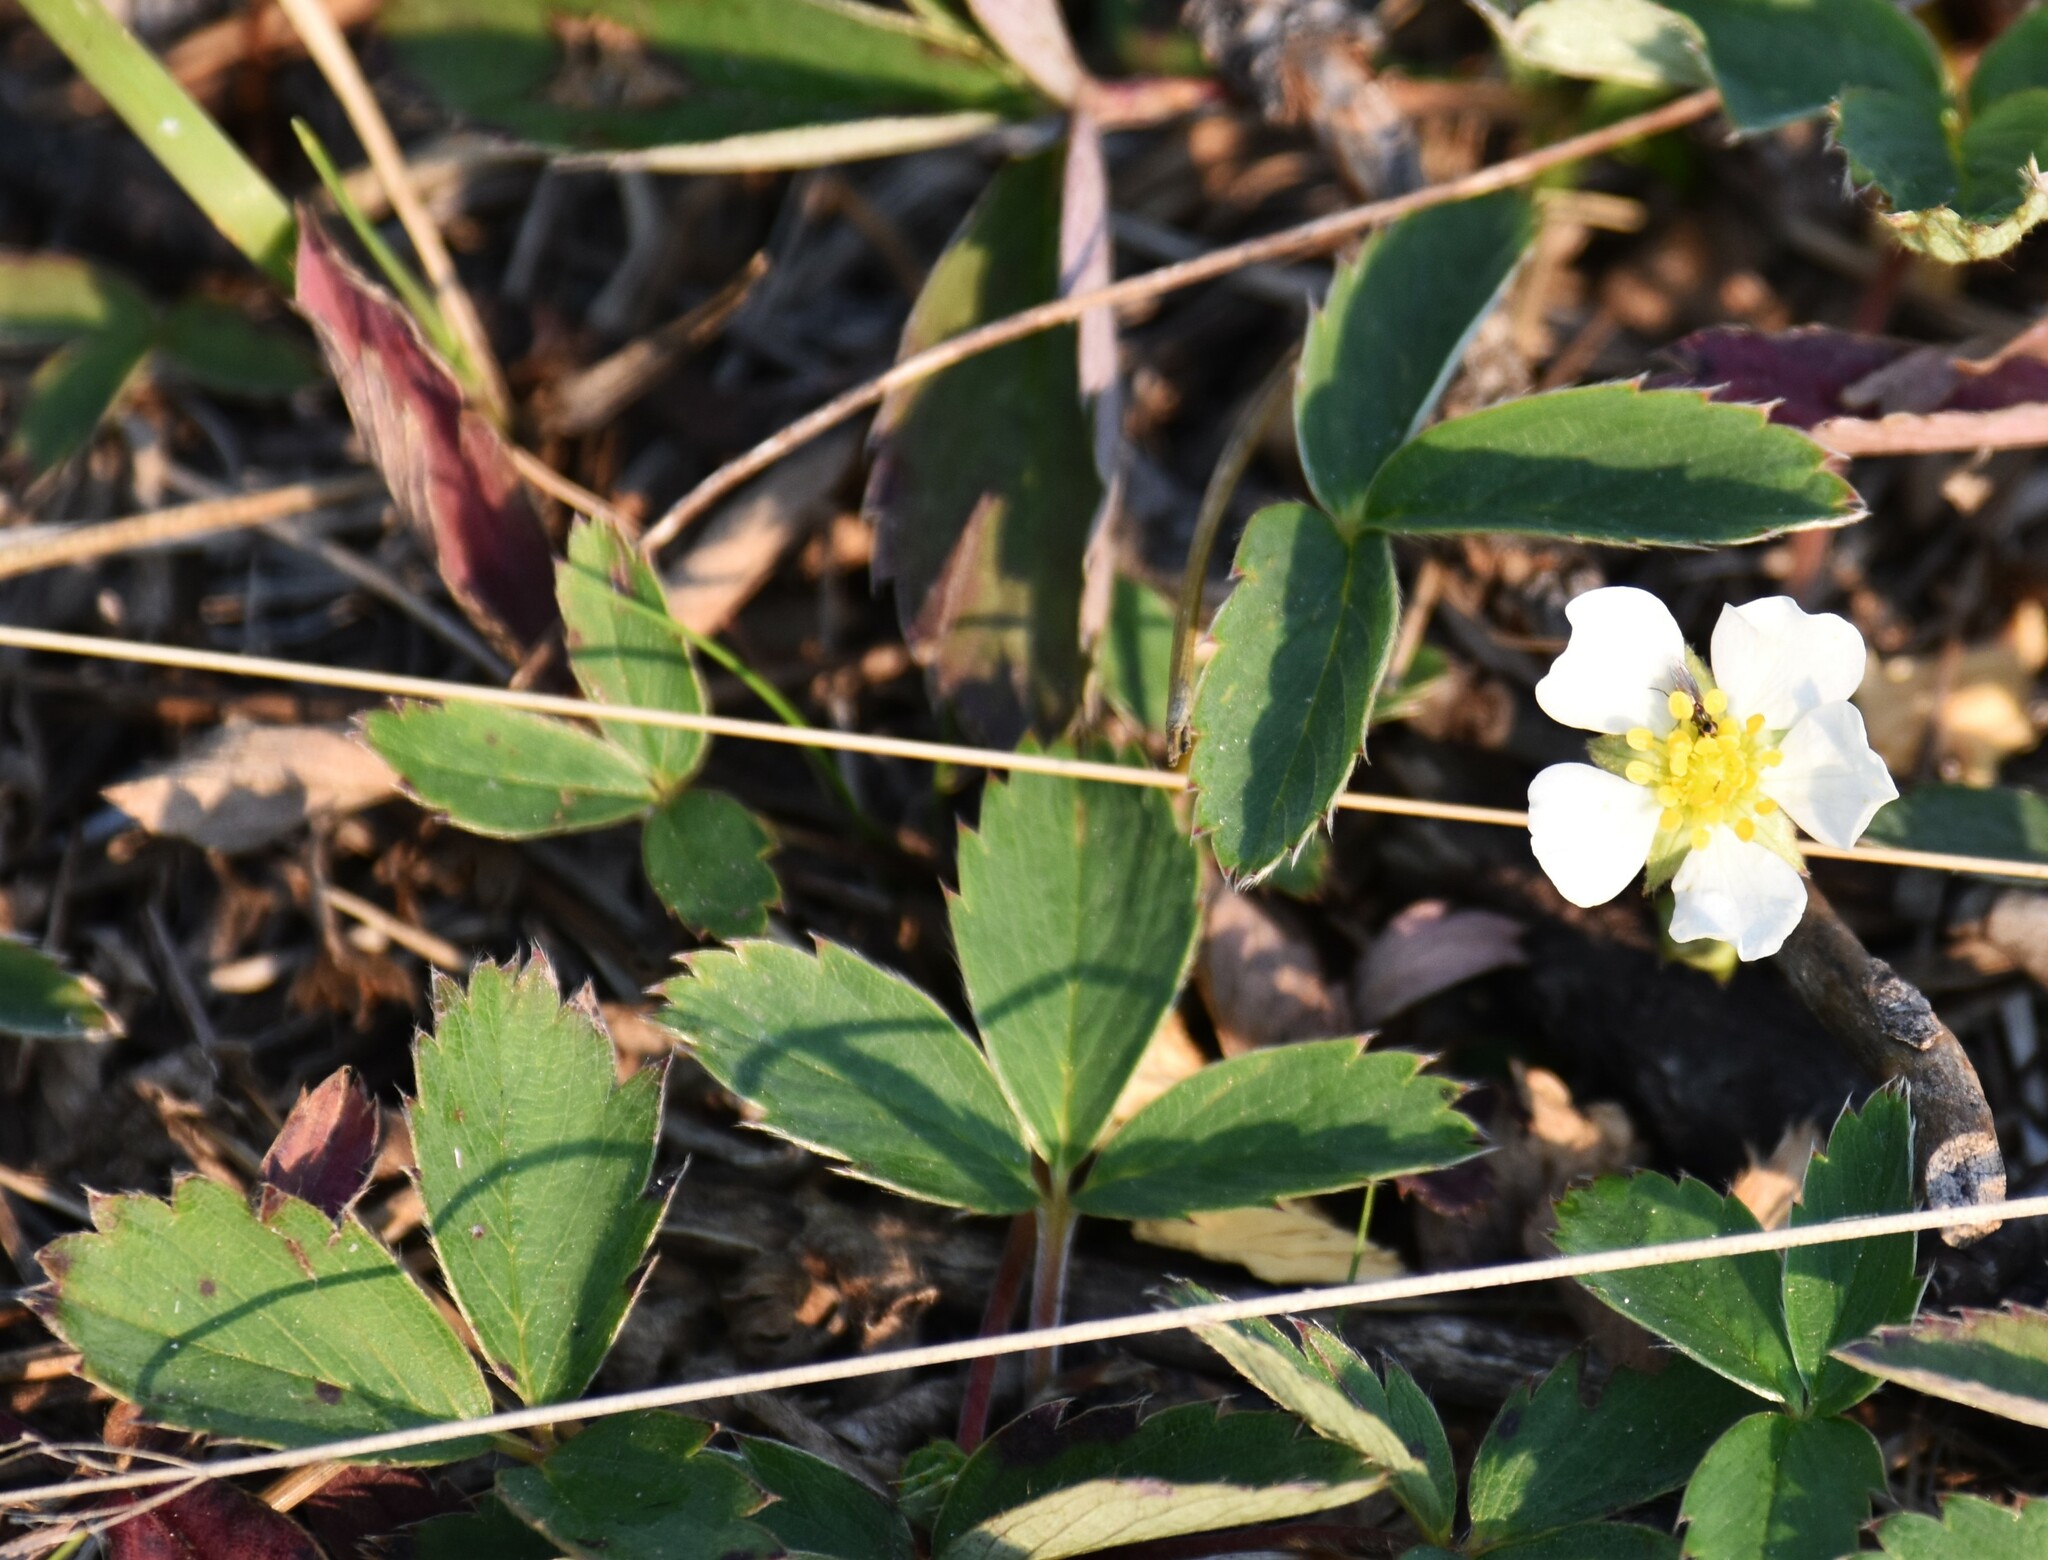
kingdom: Plantae
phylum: Tracheophyta
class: Magnoliopsida
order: Rosales
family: Rosaceae
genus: Fragaria
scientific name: Fragaria virginiana
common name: Thickleaved wild strawberry
